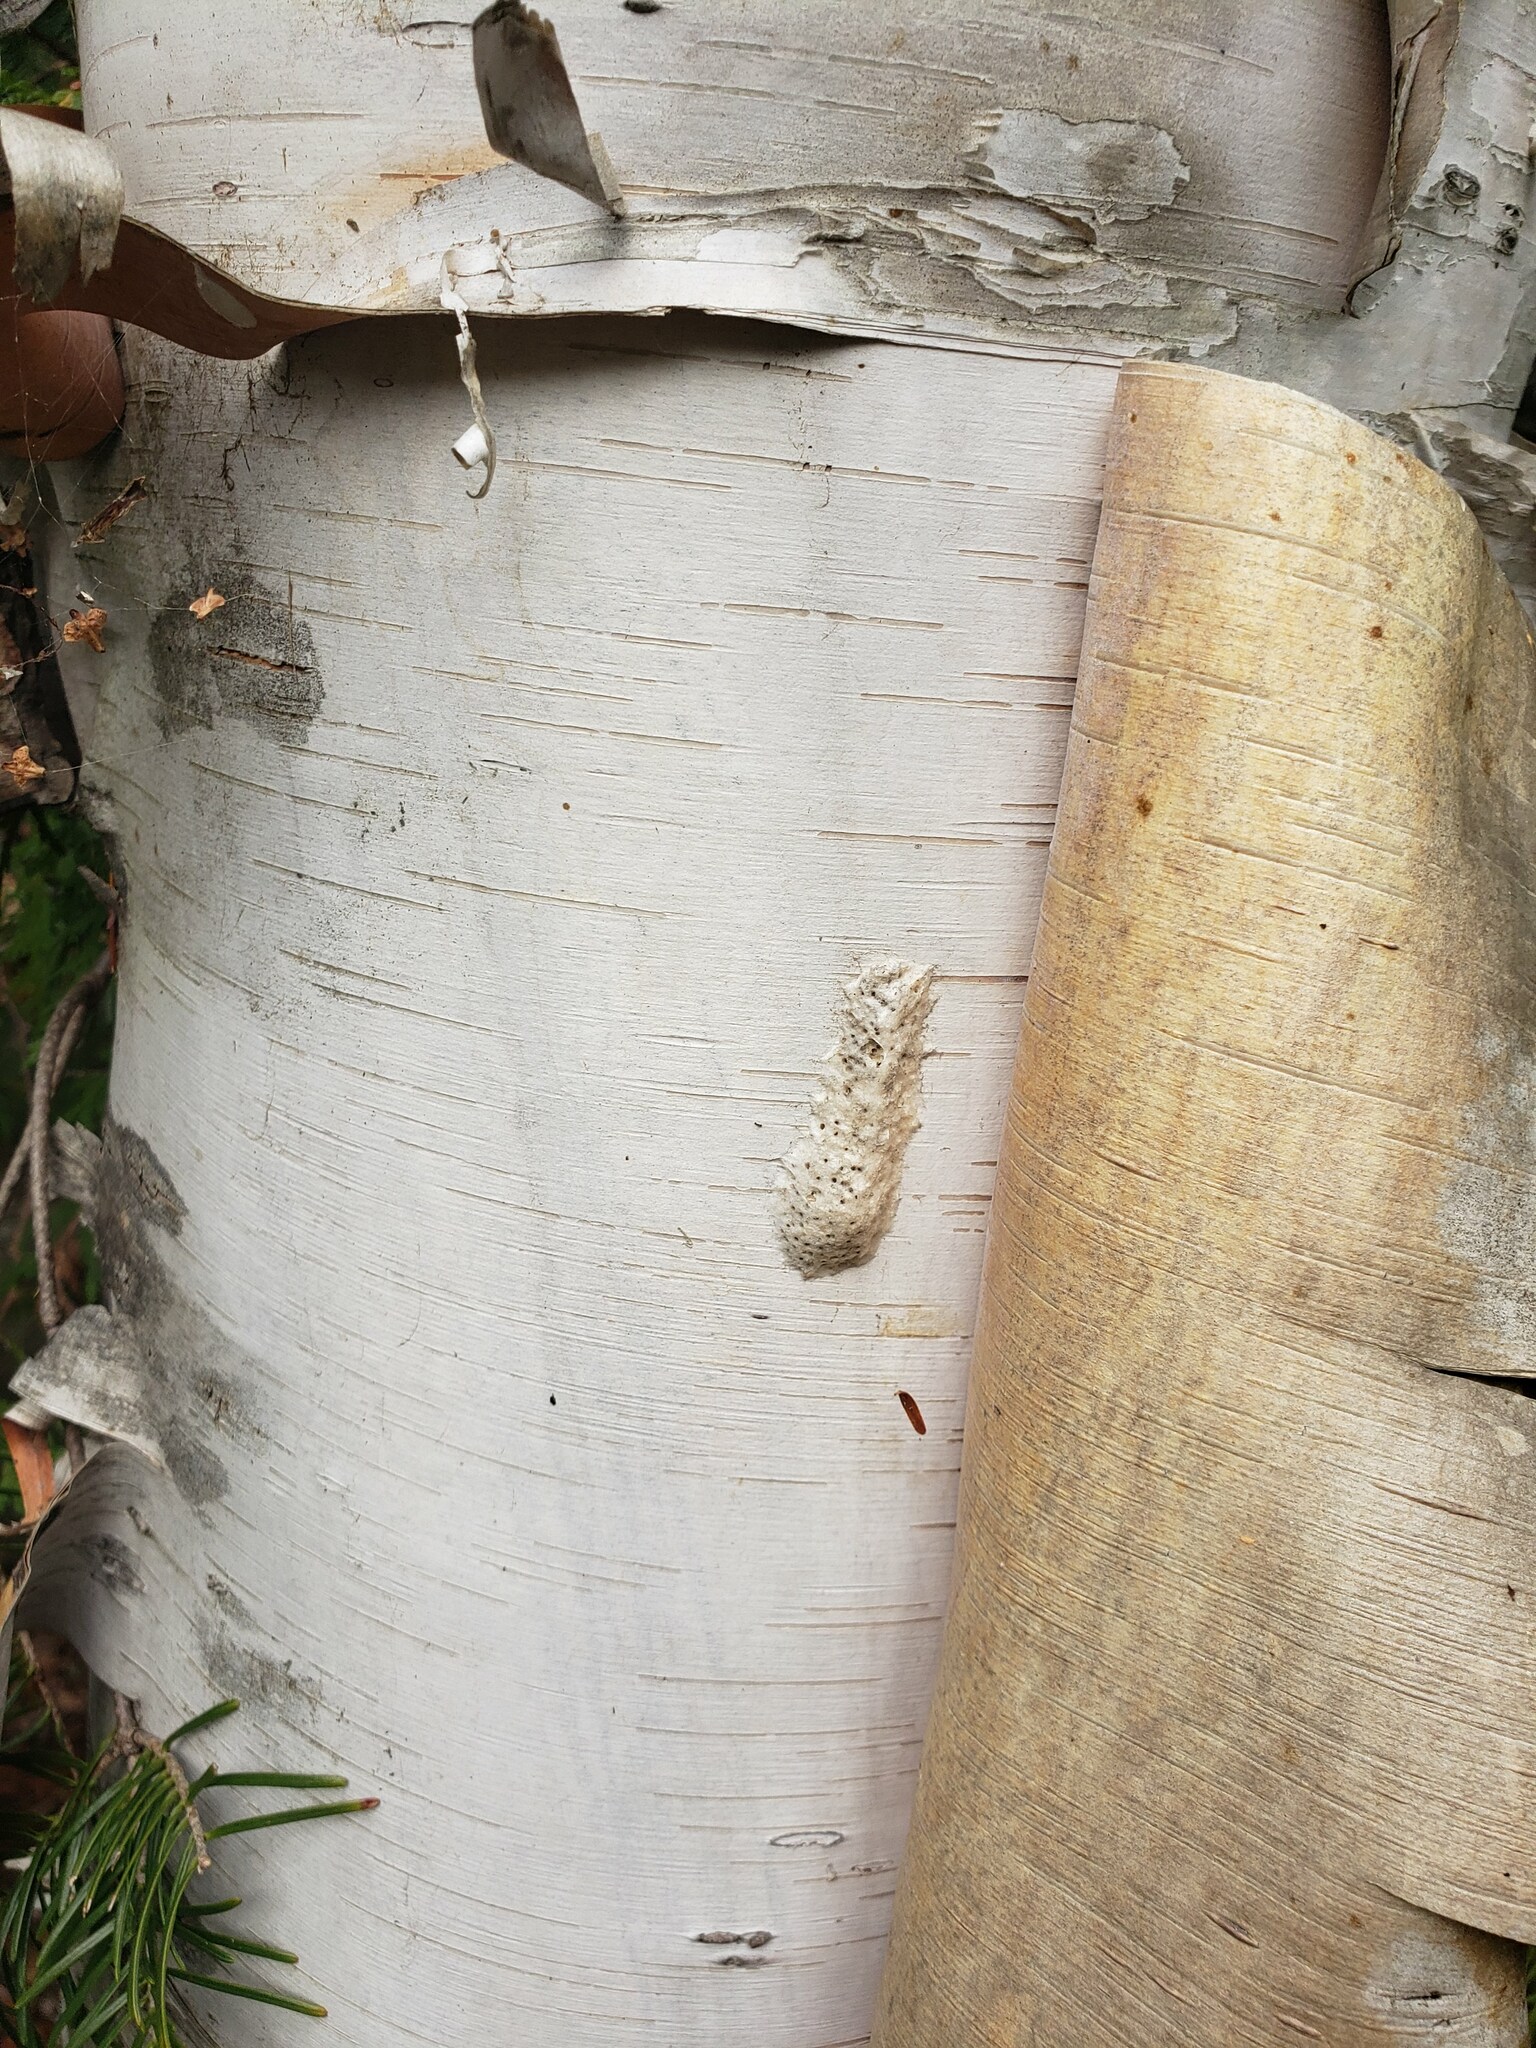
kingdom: Animalia
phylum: Arthropoda
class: Insecta
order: Lepidoptera
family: Erebidae
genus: Lymantria
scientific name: Lymantria dispar
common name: Gypsy moth
